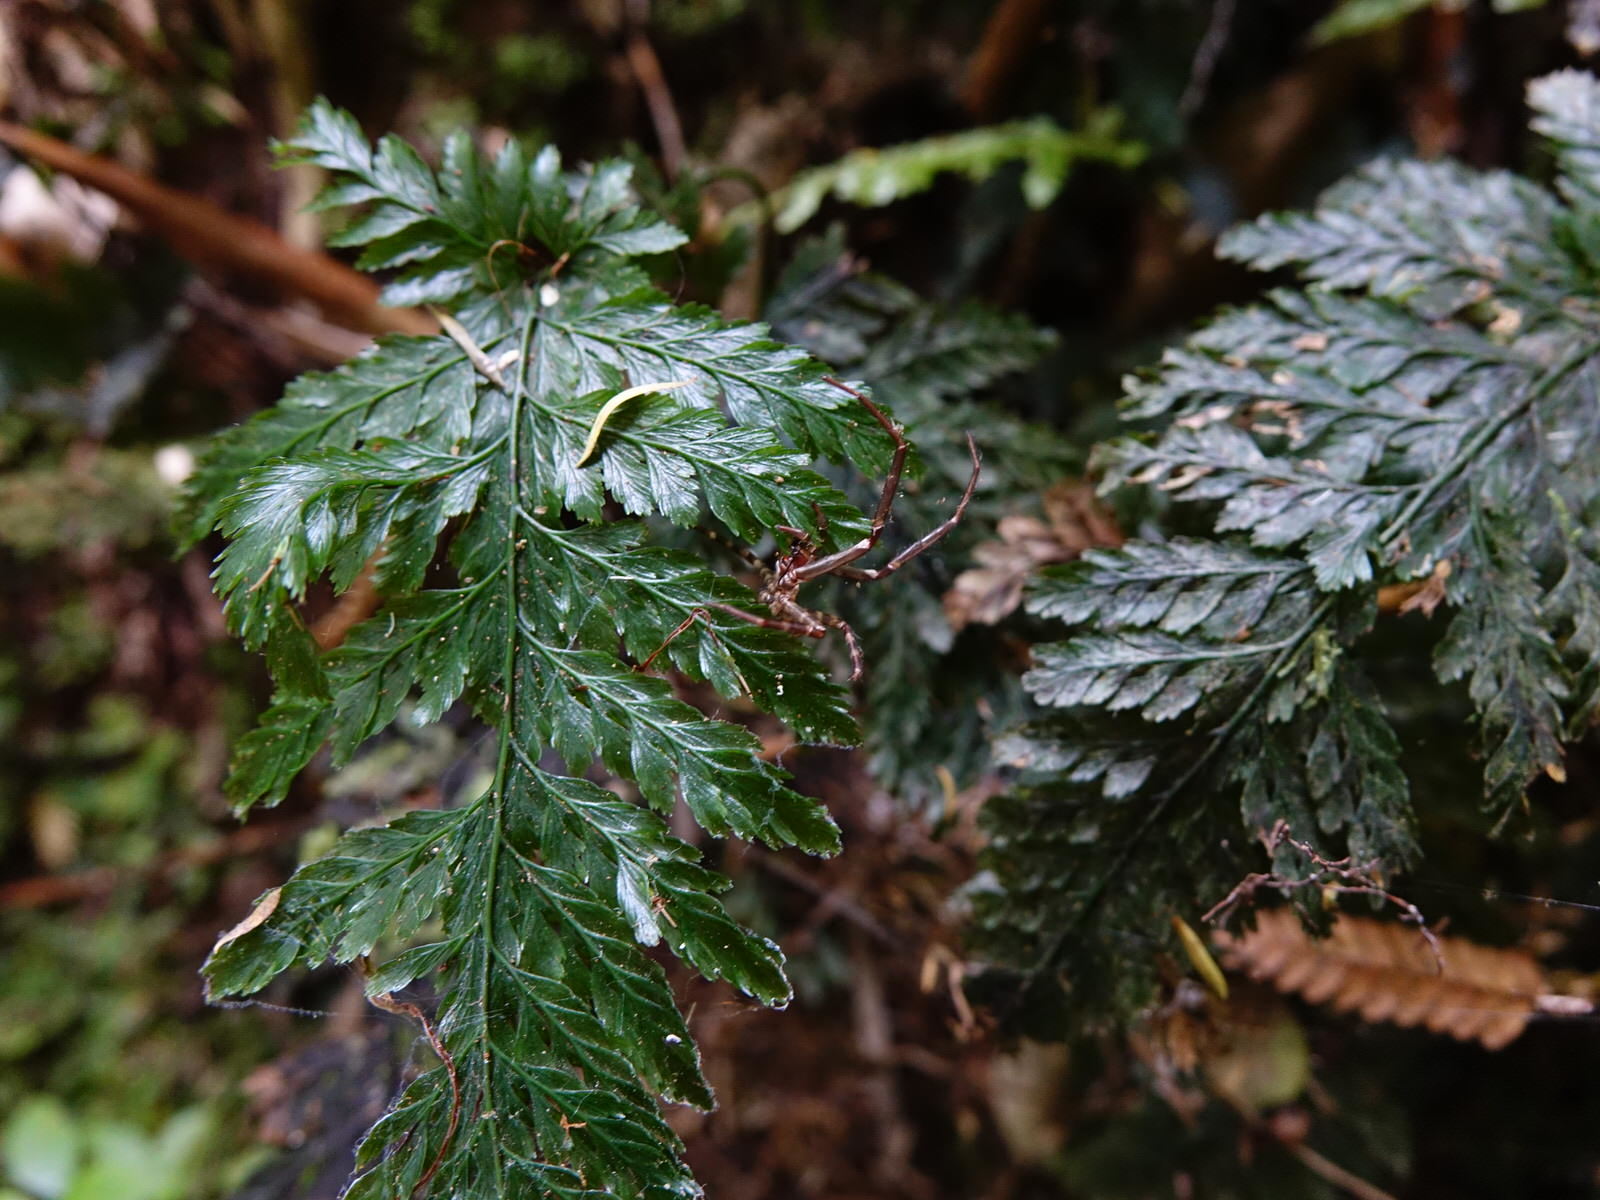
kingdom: Plantae
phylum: Tracheophyta
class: Polypodiopsida
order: Hymenophyllales
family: Hymenophyllaceae
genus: Abrodictyum
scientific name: Abrodictyum elongatum
